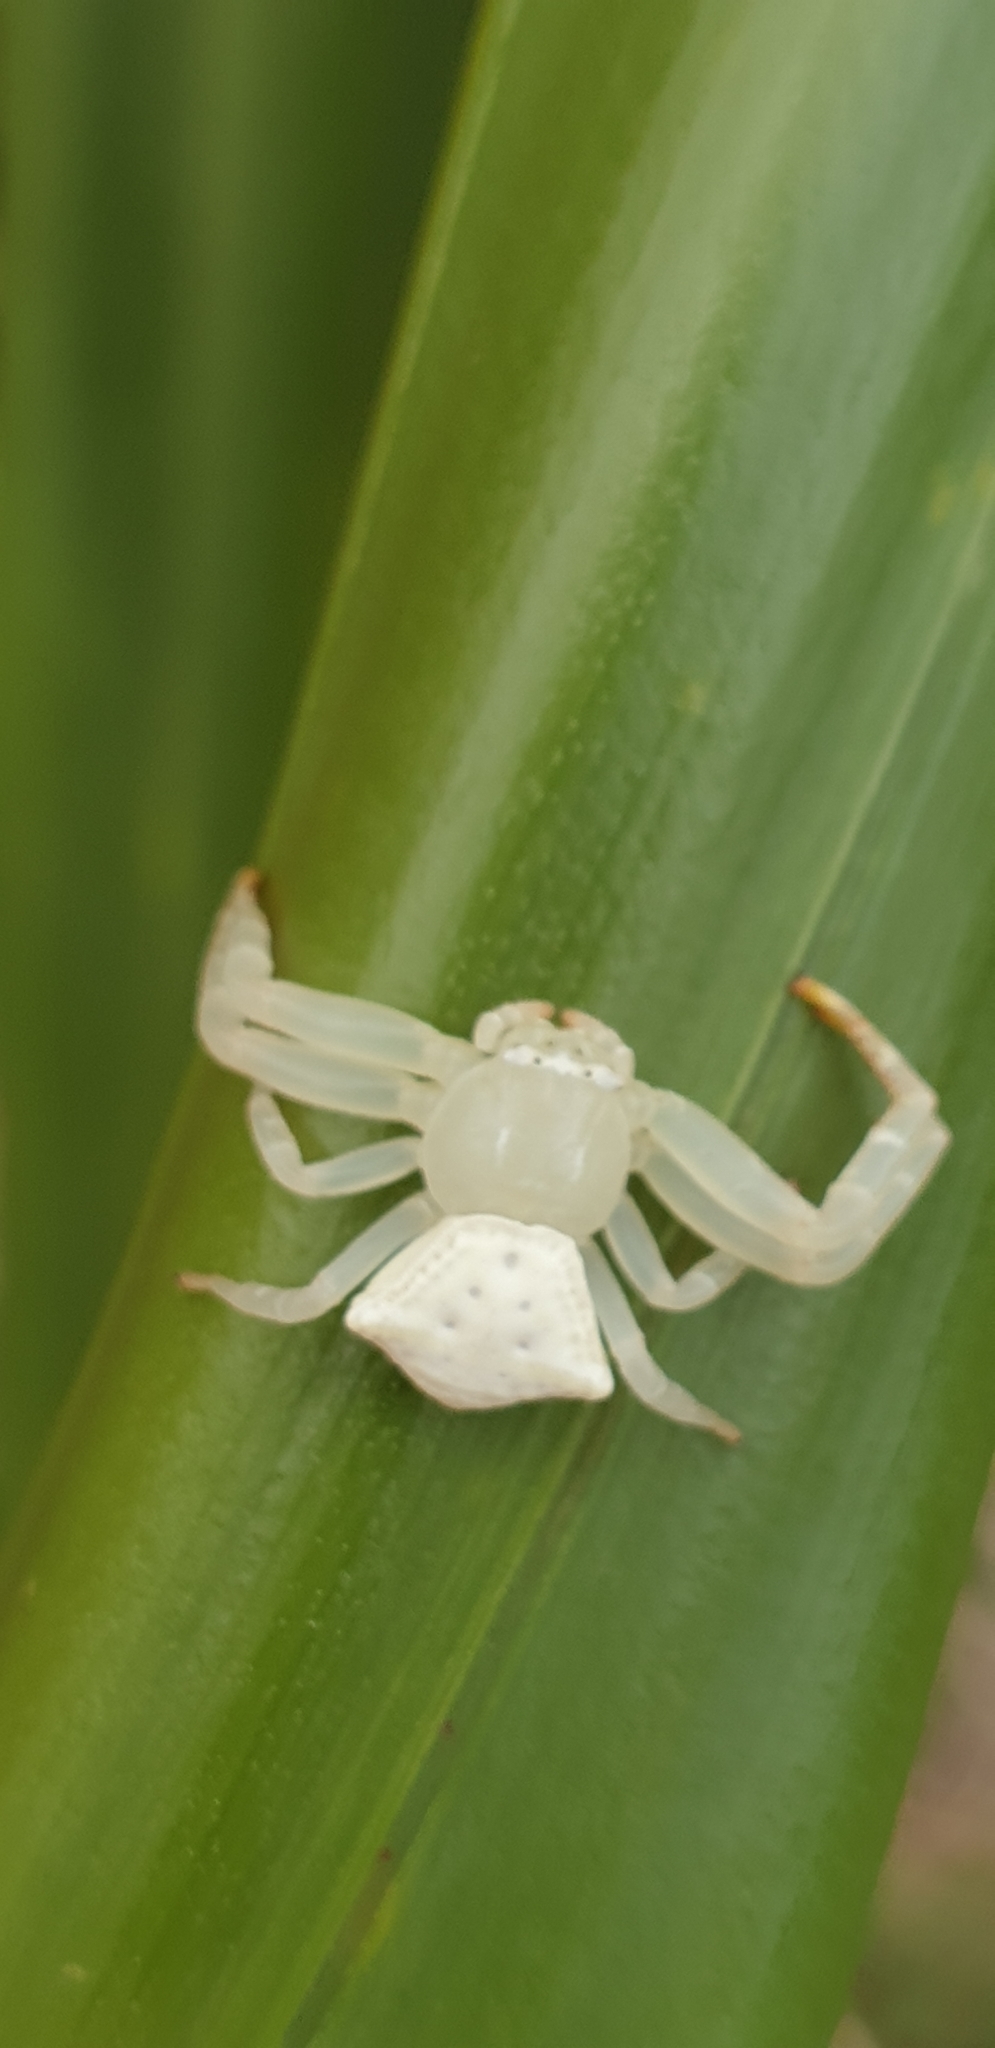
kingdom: Animalia
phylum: Arthropoda
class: Arachnida
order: Araneae
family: Thomisidae
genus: Thomisus
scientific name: Thomisus spectabilis
